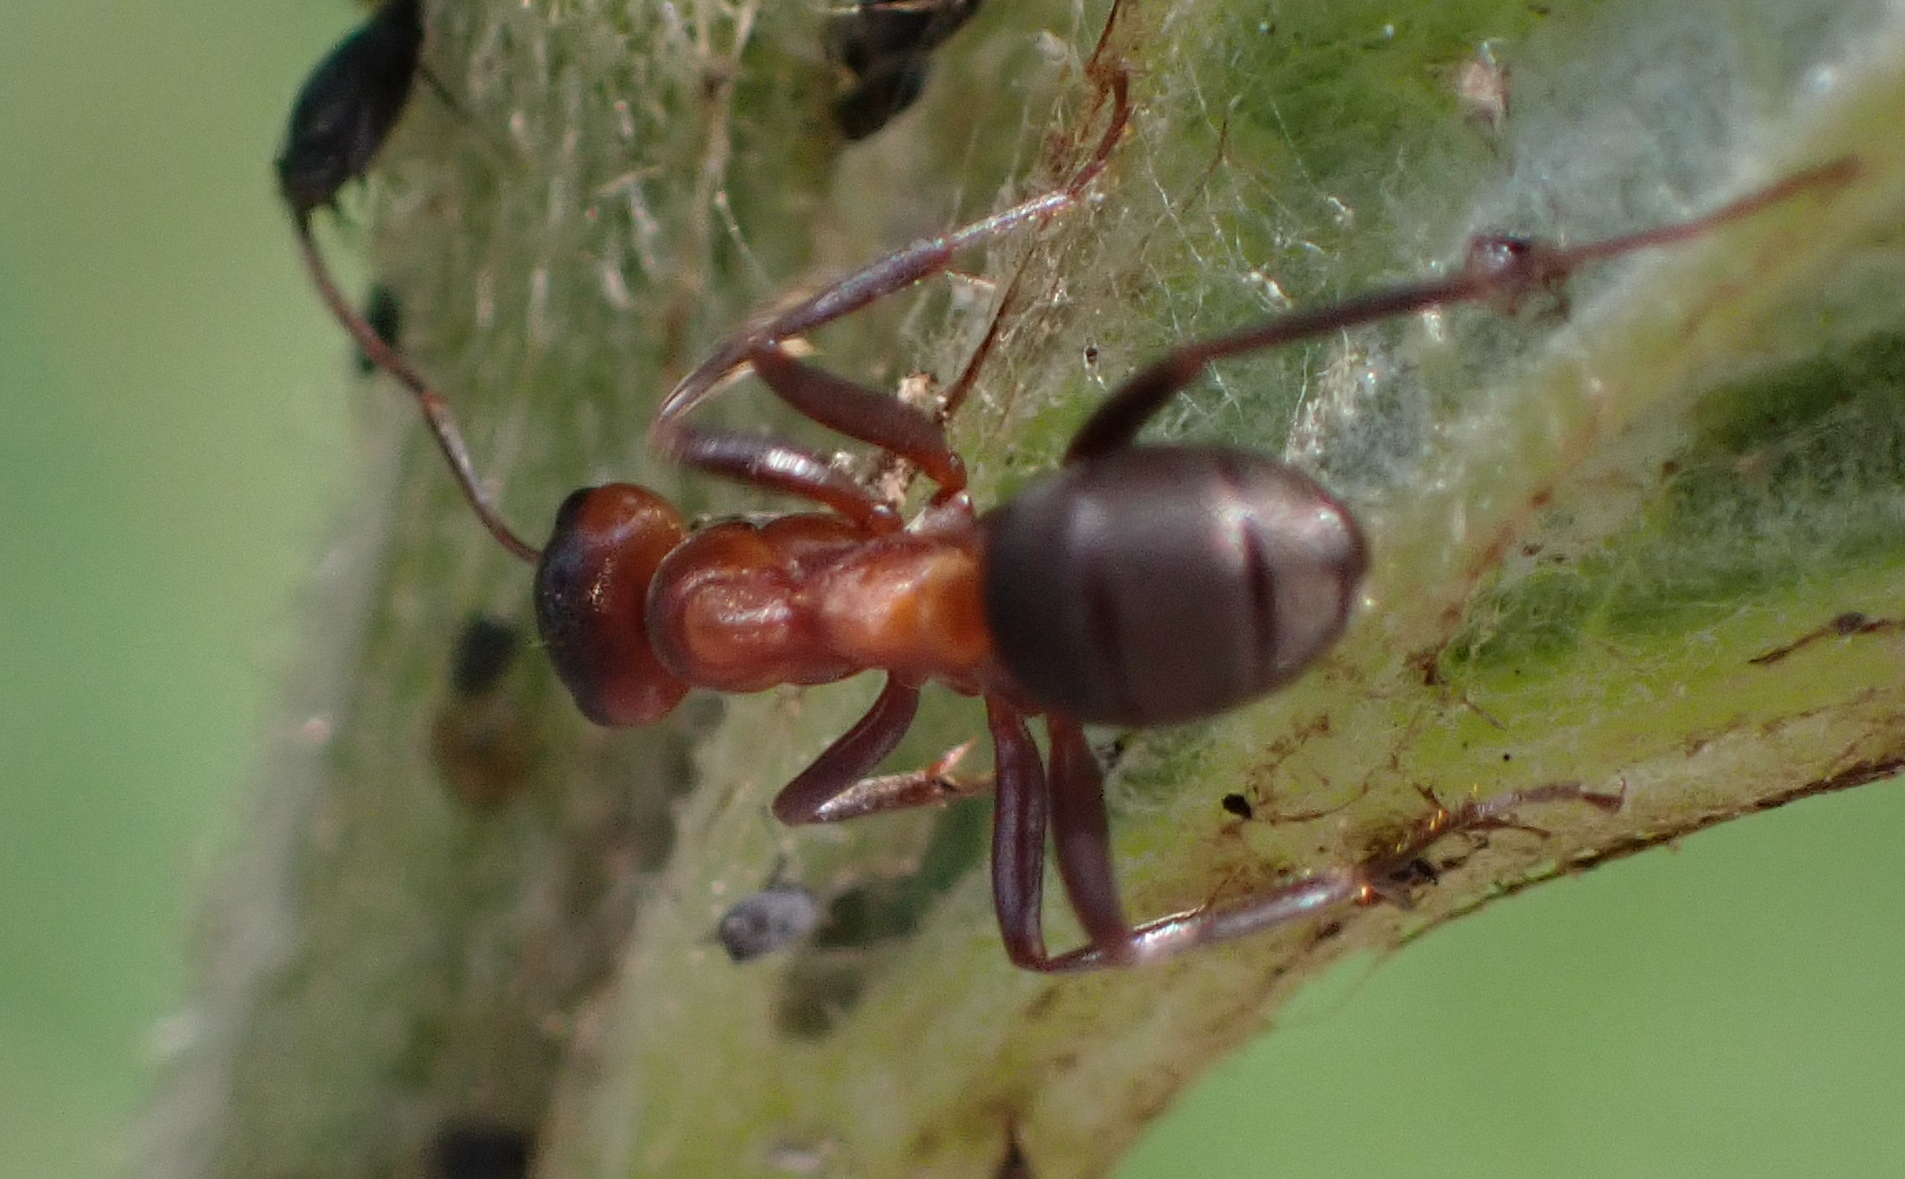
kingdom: Animalia
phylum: Arthropoda
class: Insecta
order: Hymenoptera
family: Formicidae
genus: Formica
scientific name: Formica sanguinea
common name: Blood-red ant
